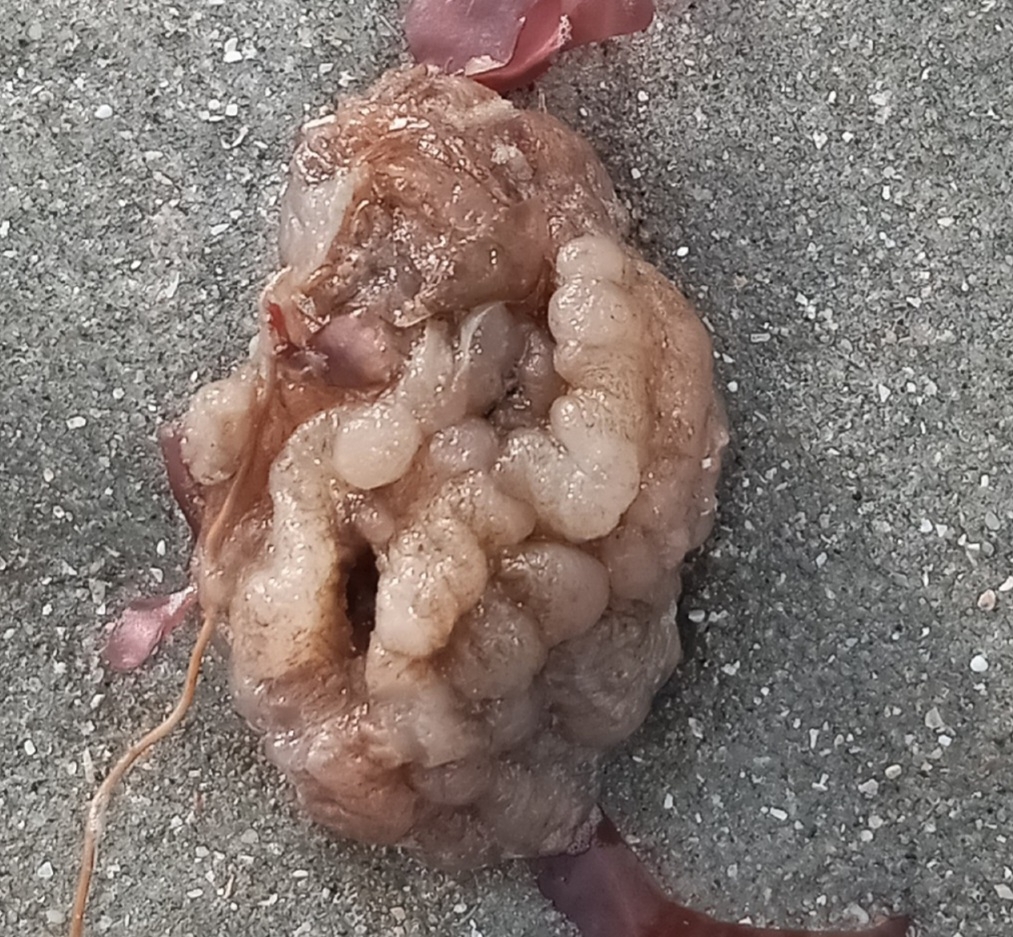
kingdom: Animalia
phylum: Chordata
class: Ascidiacea
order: Stolidobranchia
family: Styelidae
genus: Styela
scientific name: Styela plicata
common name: Pleated tunicate
